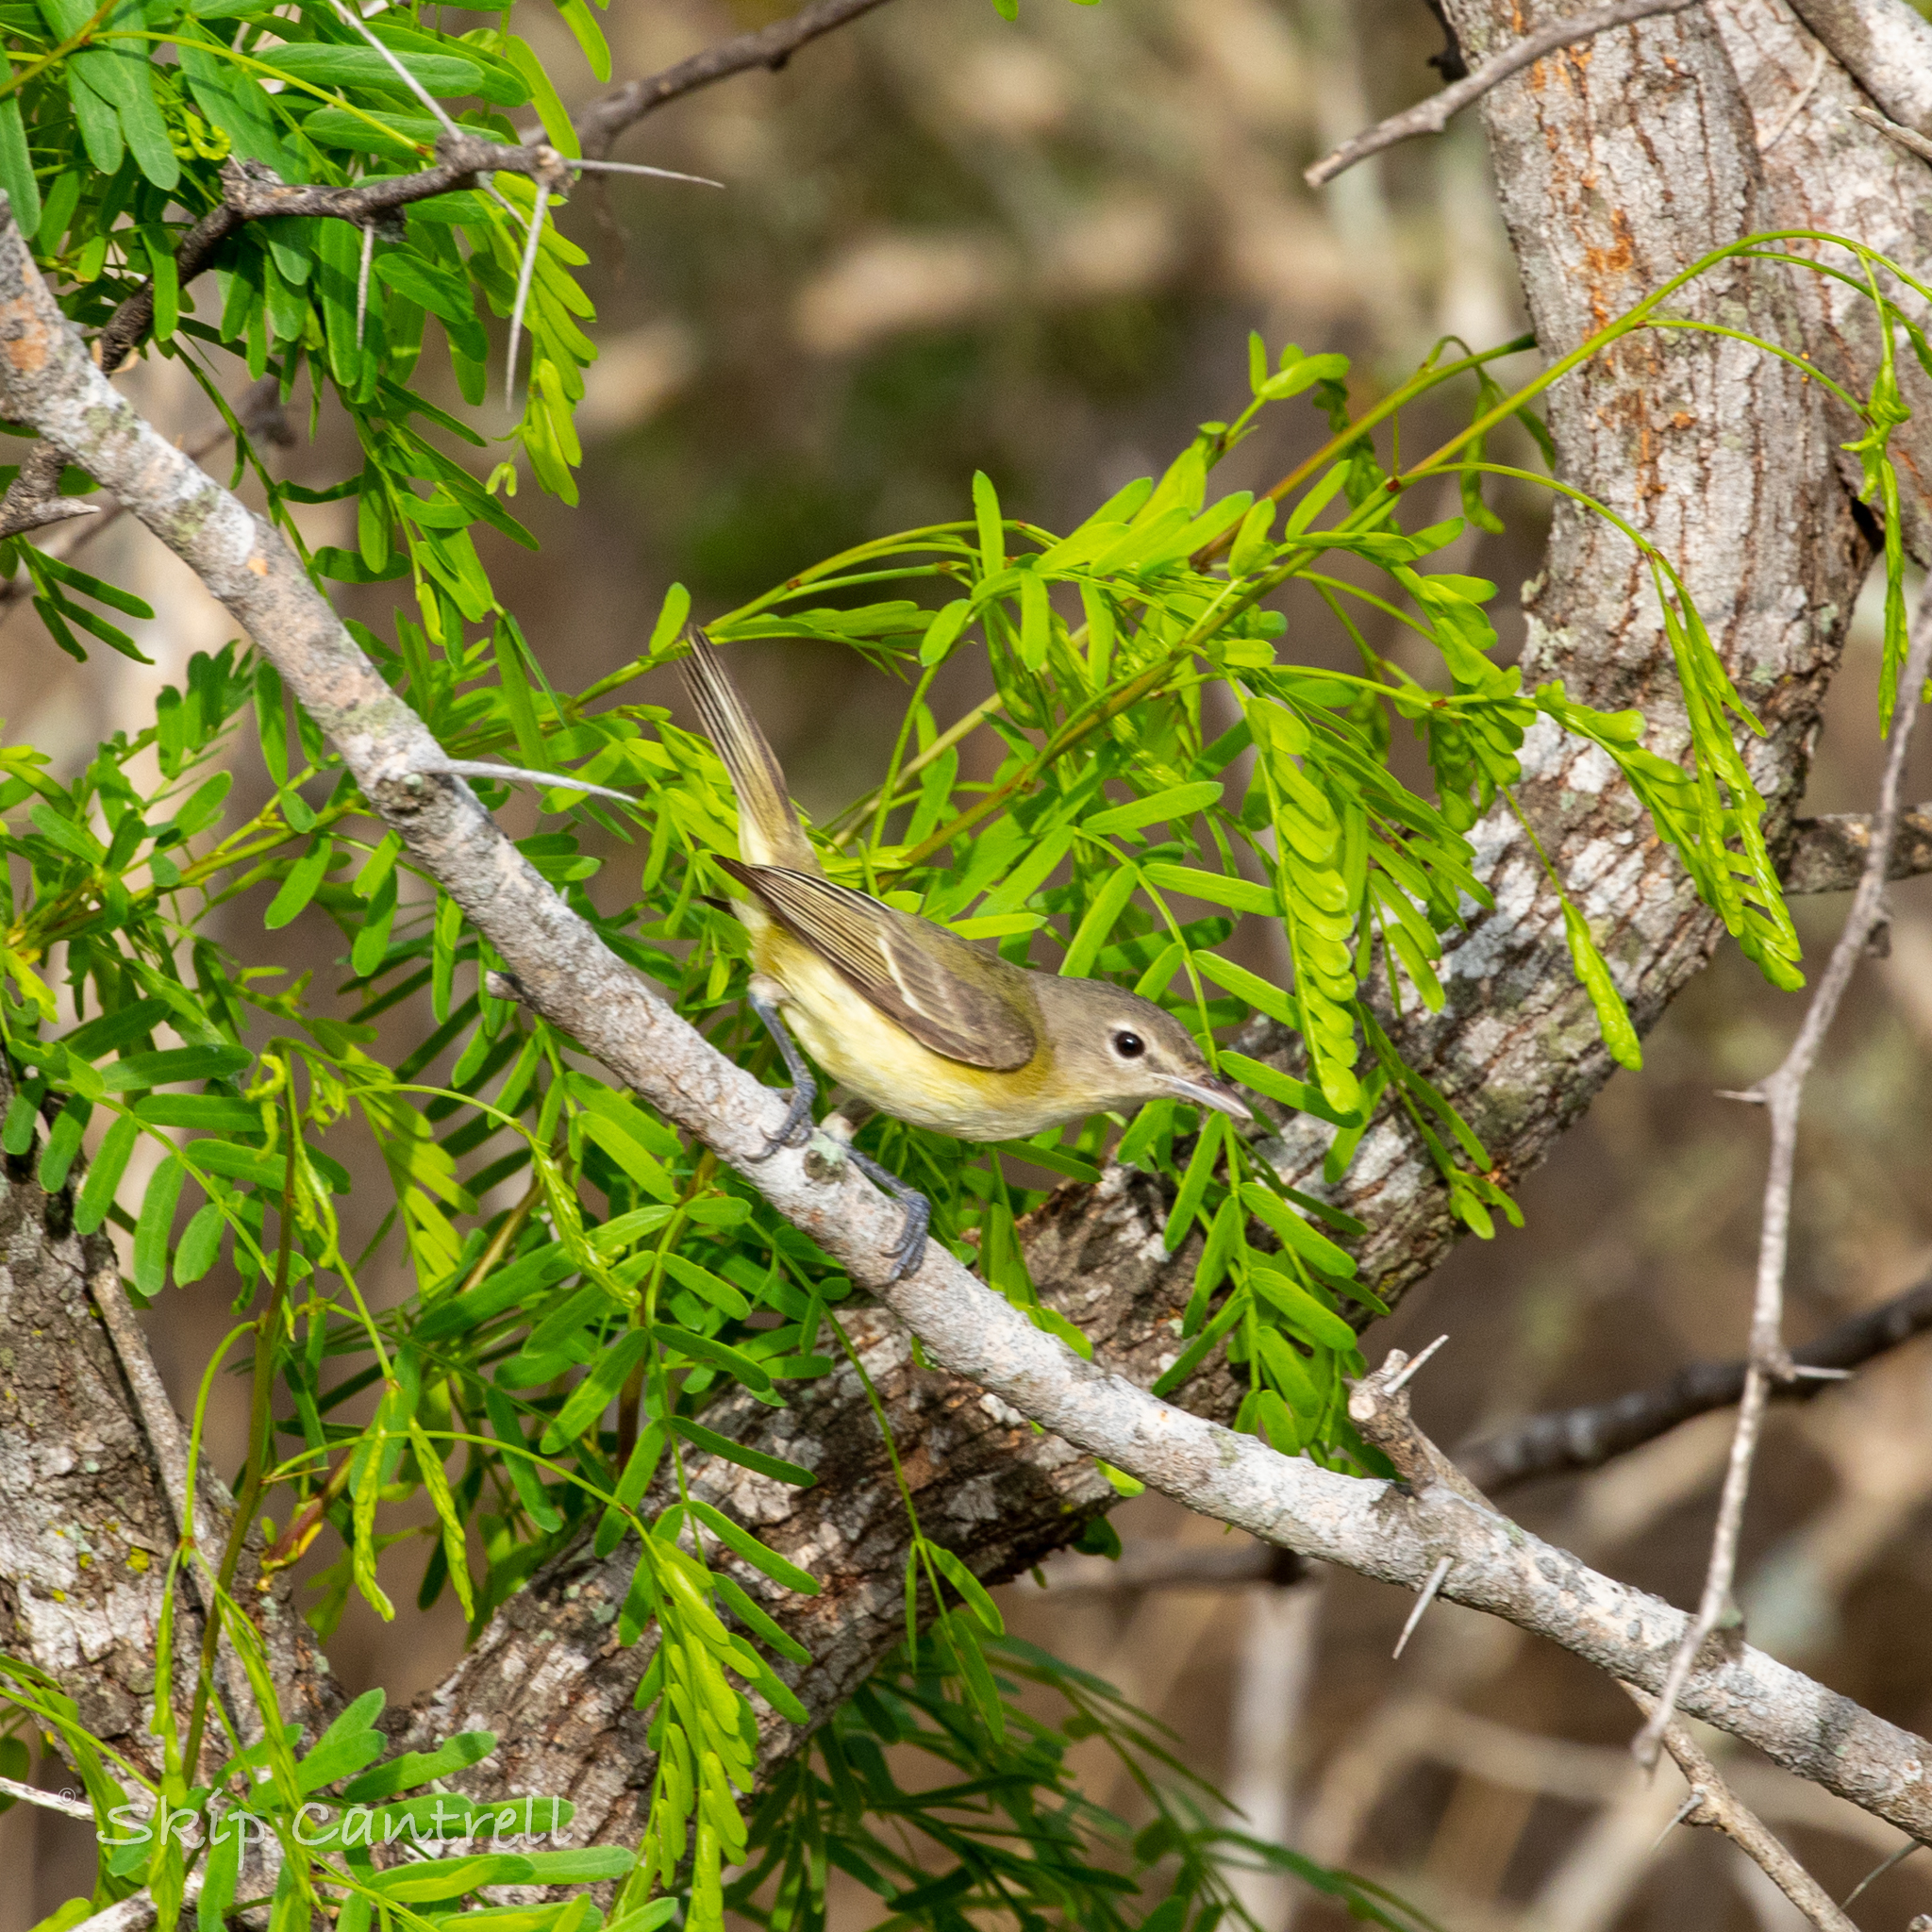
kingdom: Animalia
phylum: Chordata
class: Aves
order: Passeriformes
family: Vireonidae
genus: Vireo
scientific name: Vireo bellii
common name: Bell's vireo
